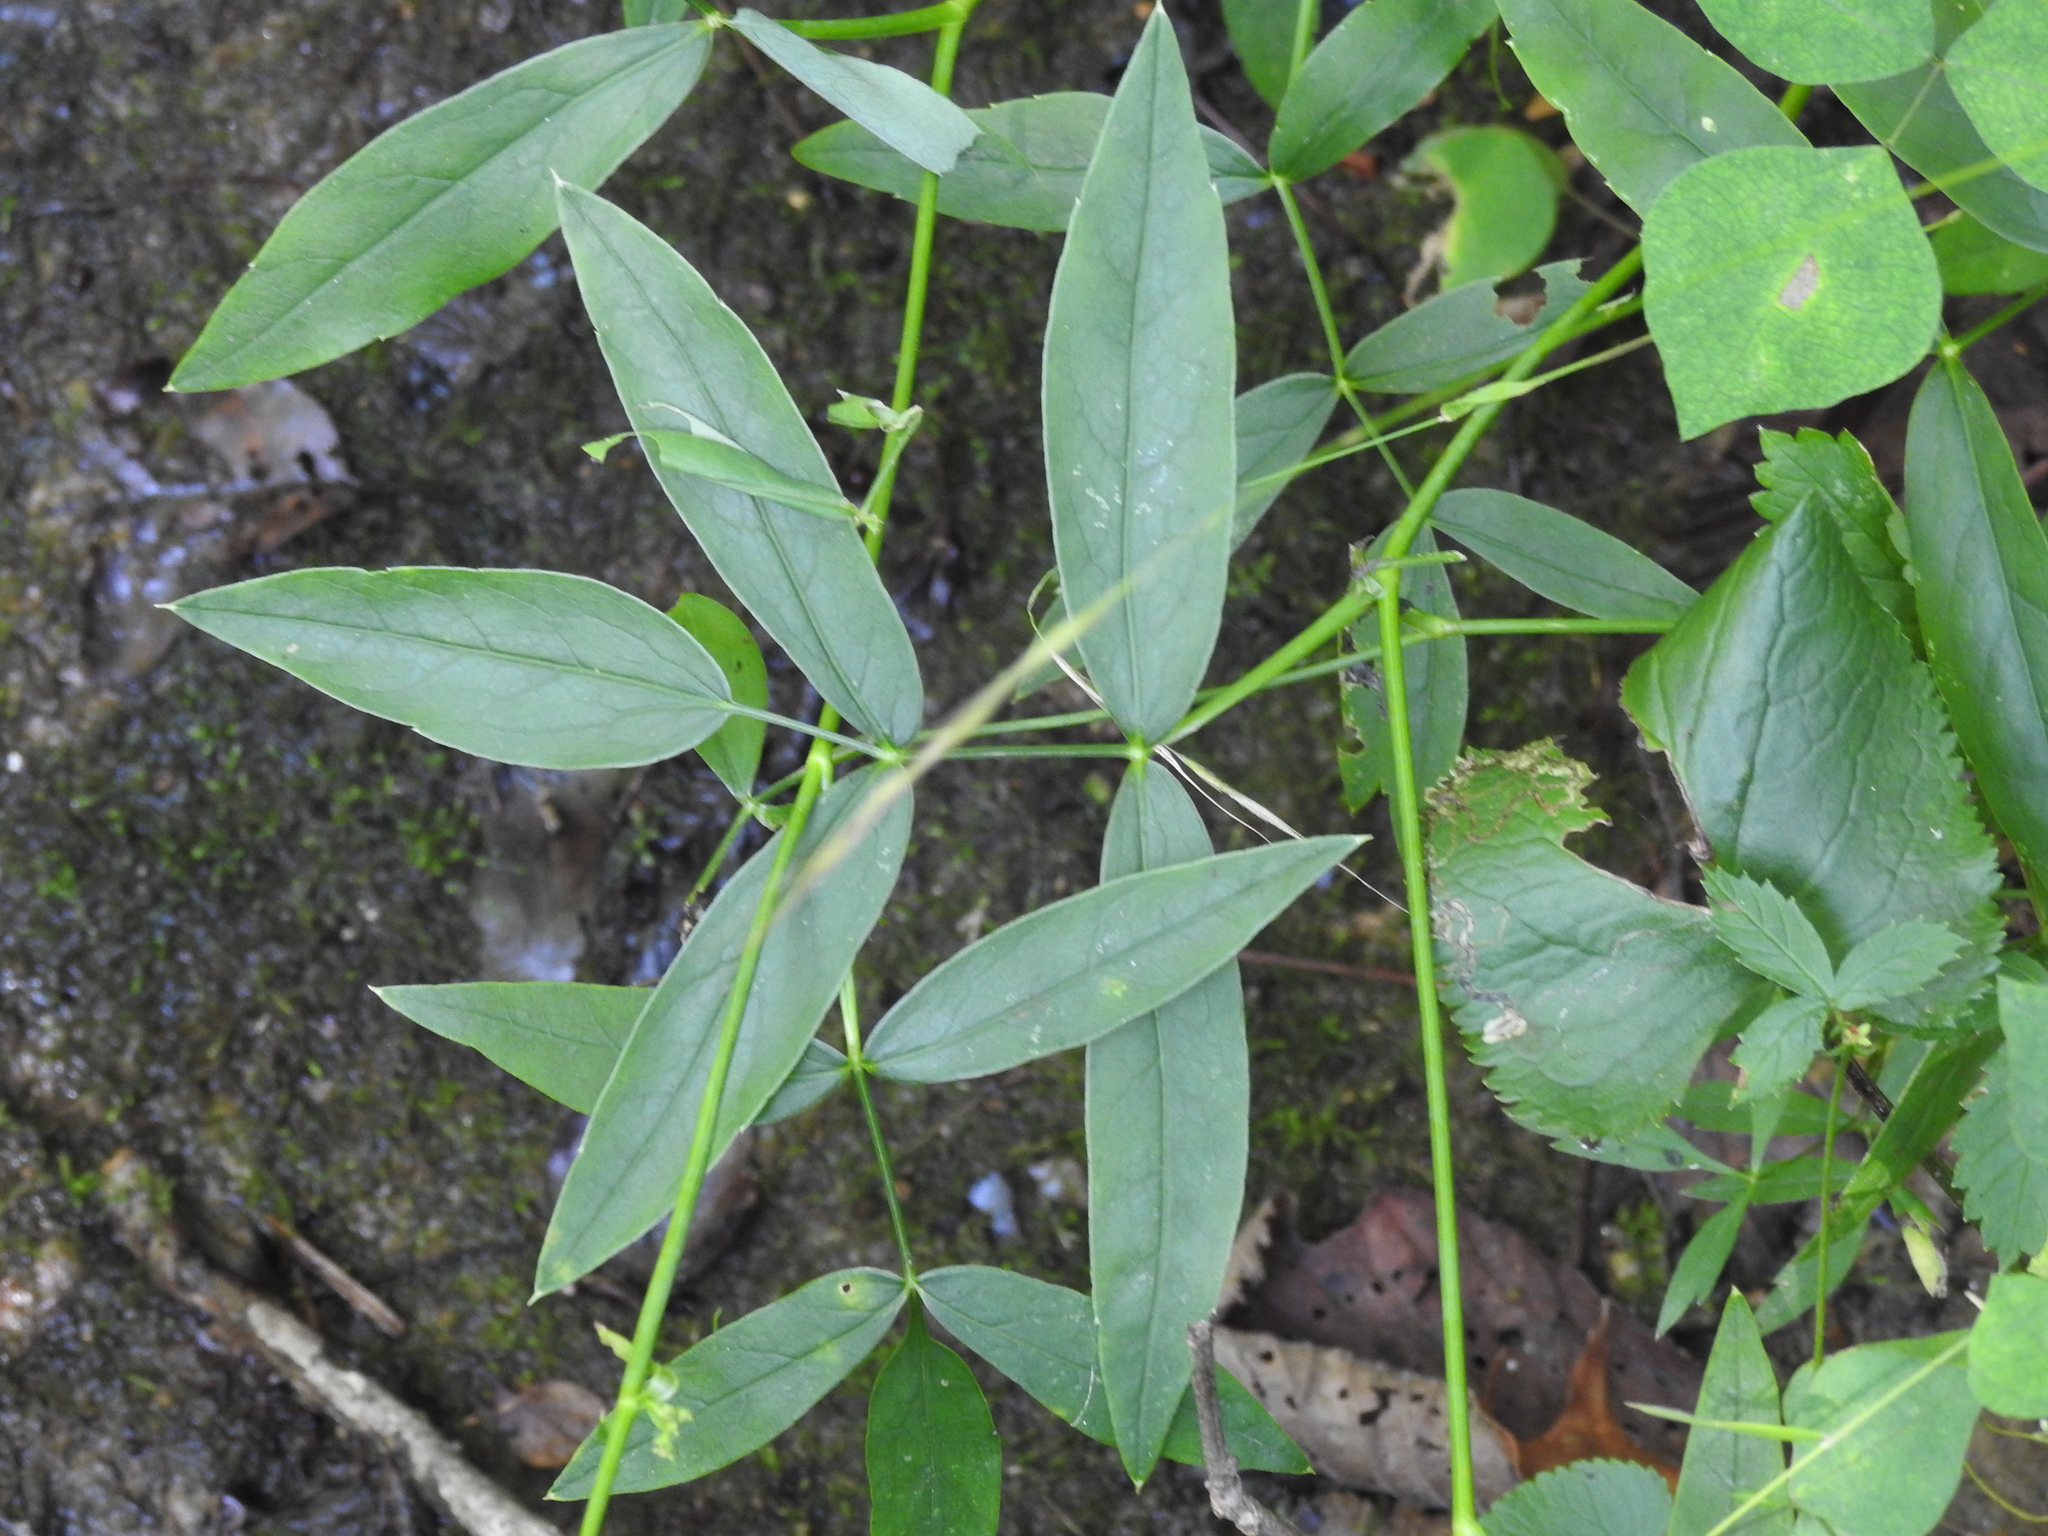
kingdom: Plantae
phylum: Tracheophyta
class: Magnoliopsida
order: Apiales
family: Apiaceae
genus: Oxypolis
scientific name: Oxypolis rigidior
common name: Cowbane
